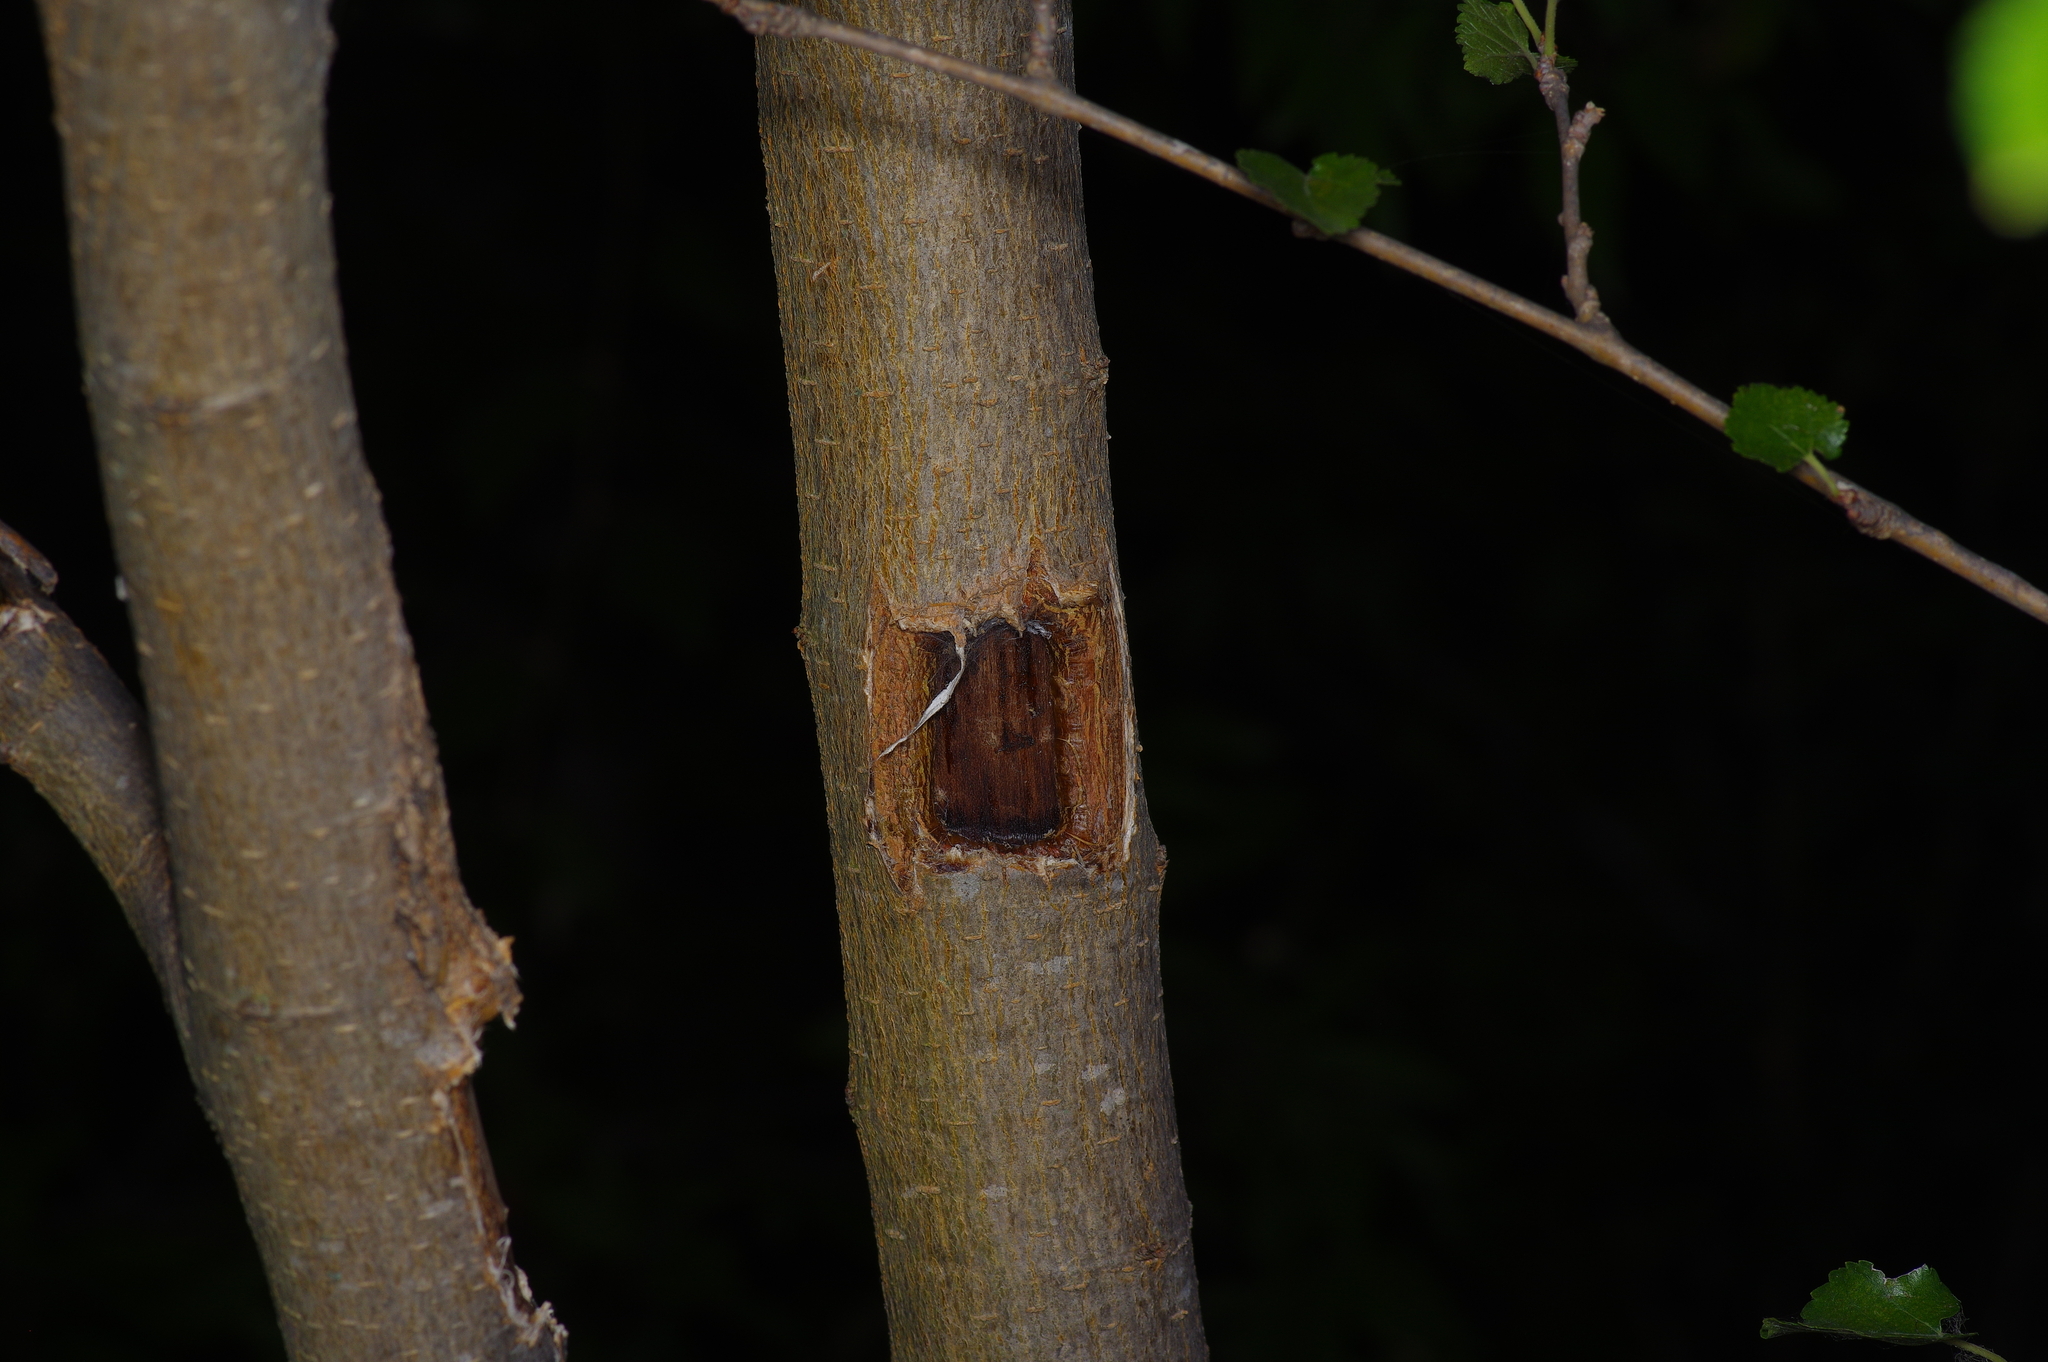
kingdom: Plantae
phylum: Tracheophyta
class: Magnoliopsida
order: Rosales
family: Moraceae
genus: Morus
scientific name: Morus alba
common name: White mulberry
